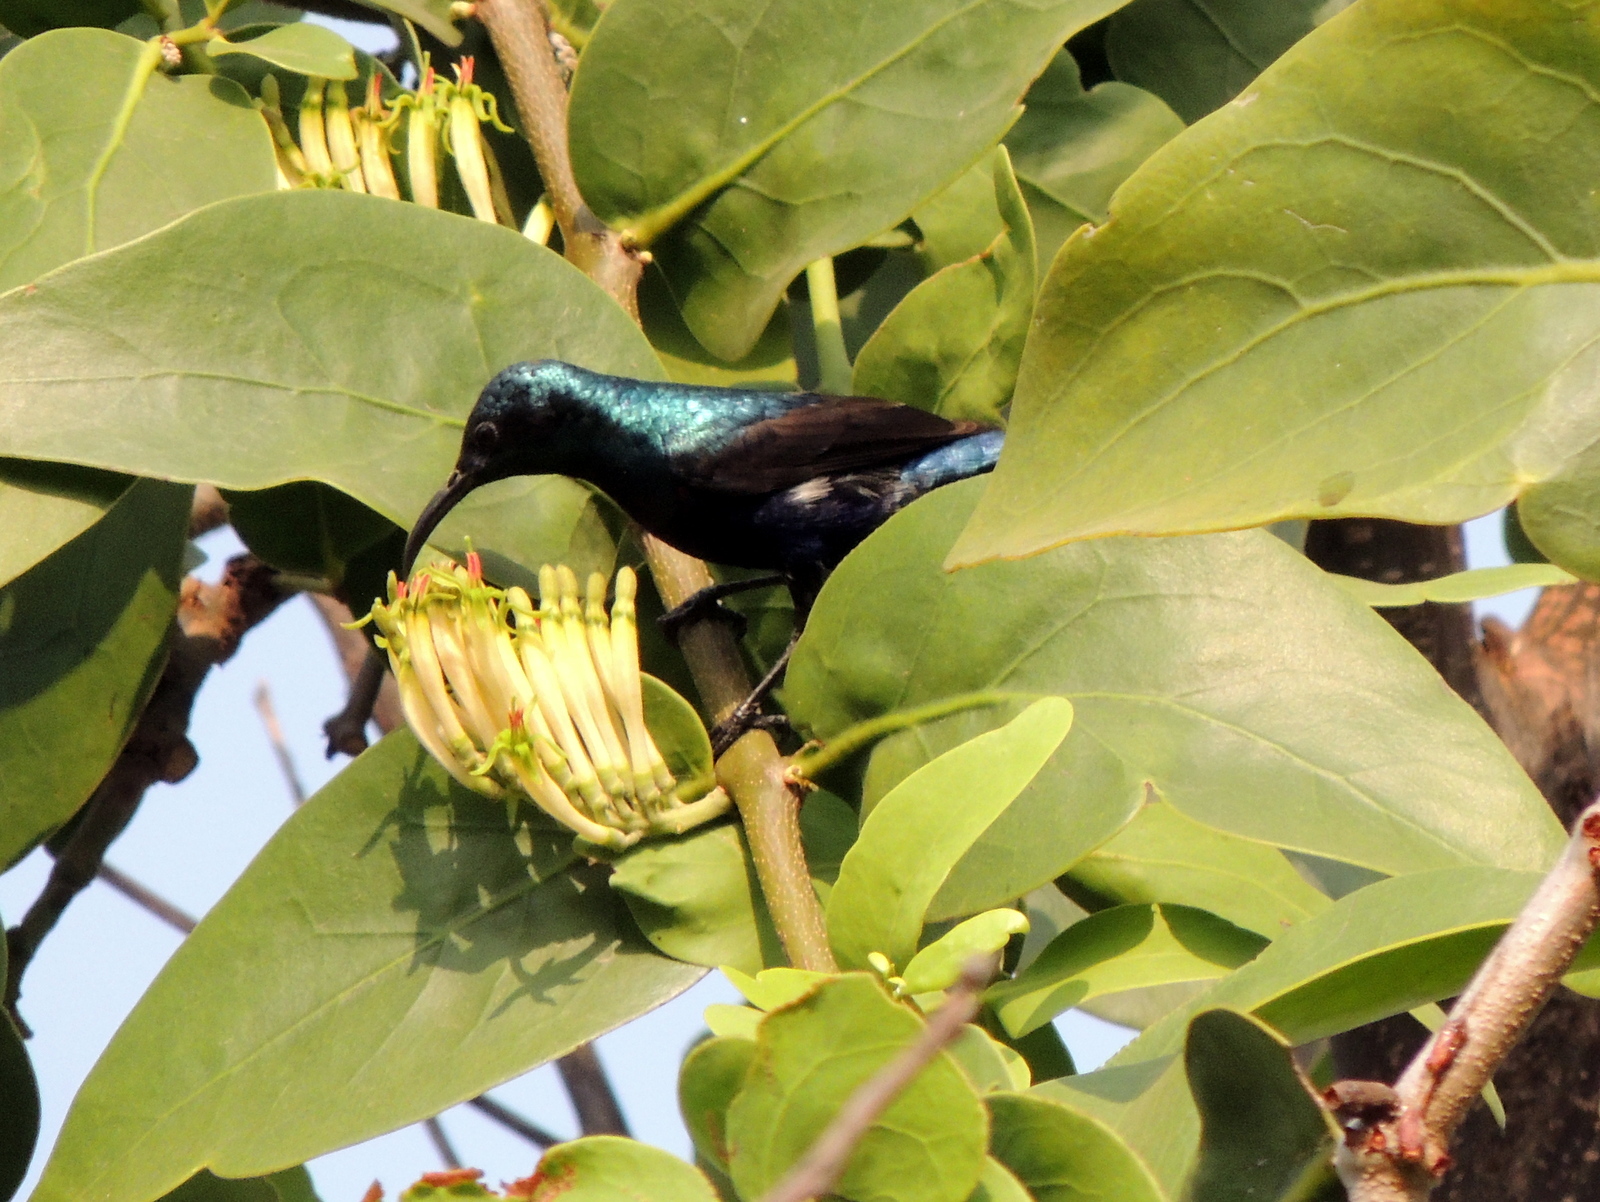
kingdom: Animalia
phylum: Chordata
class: Aves
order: Passeriformes
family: Nectariniidae
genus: Cinnyris
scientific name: Cinnyris asiaticus
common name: Purple sunbird
